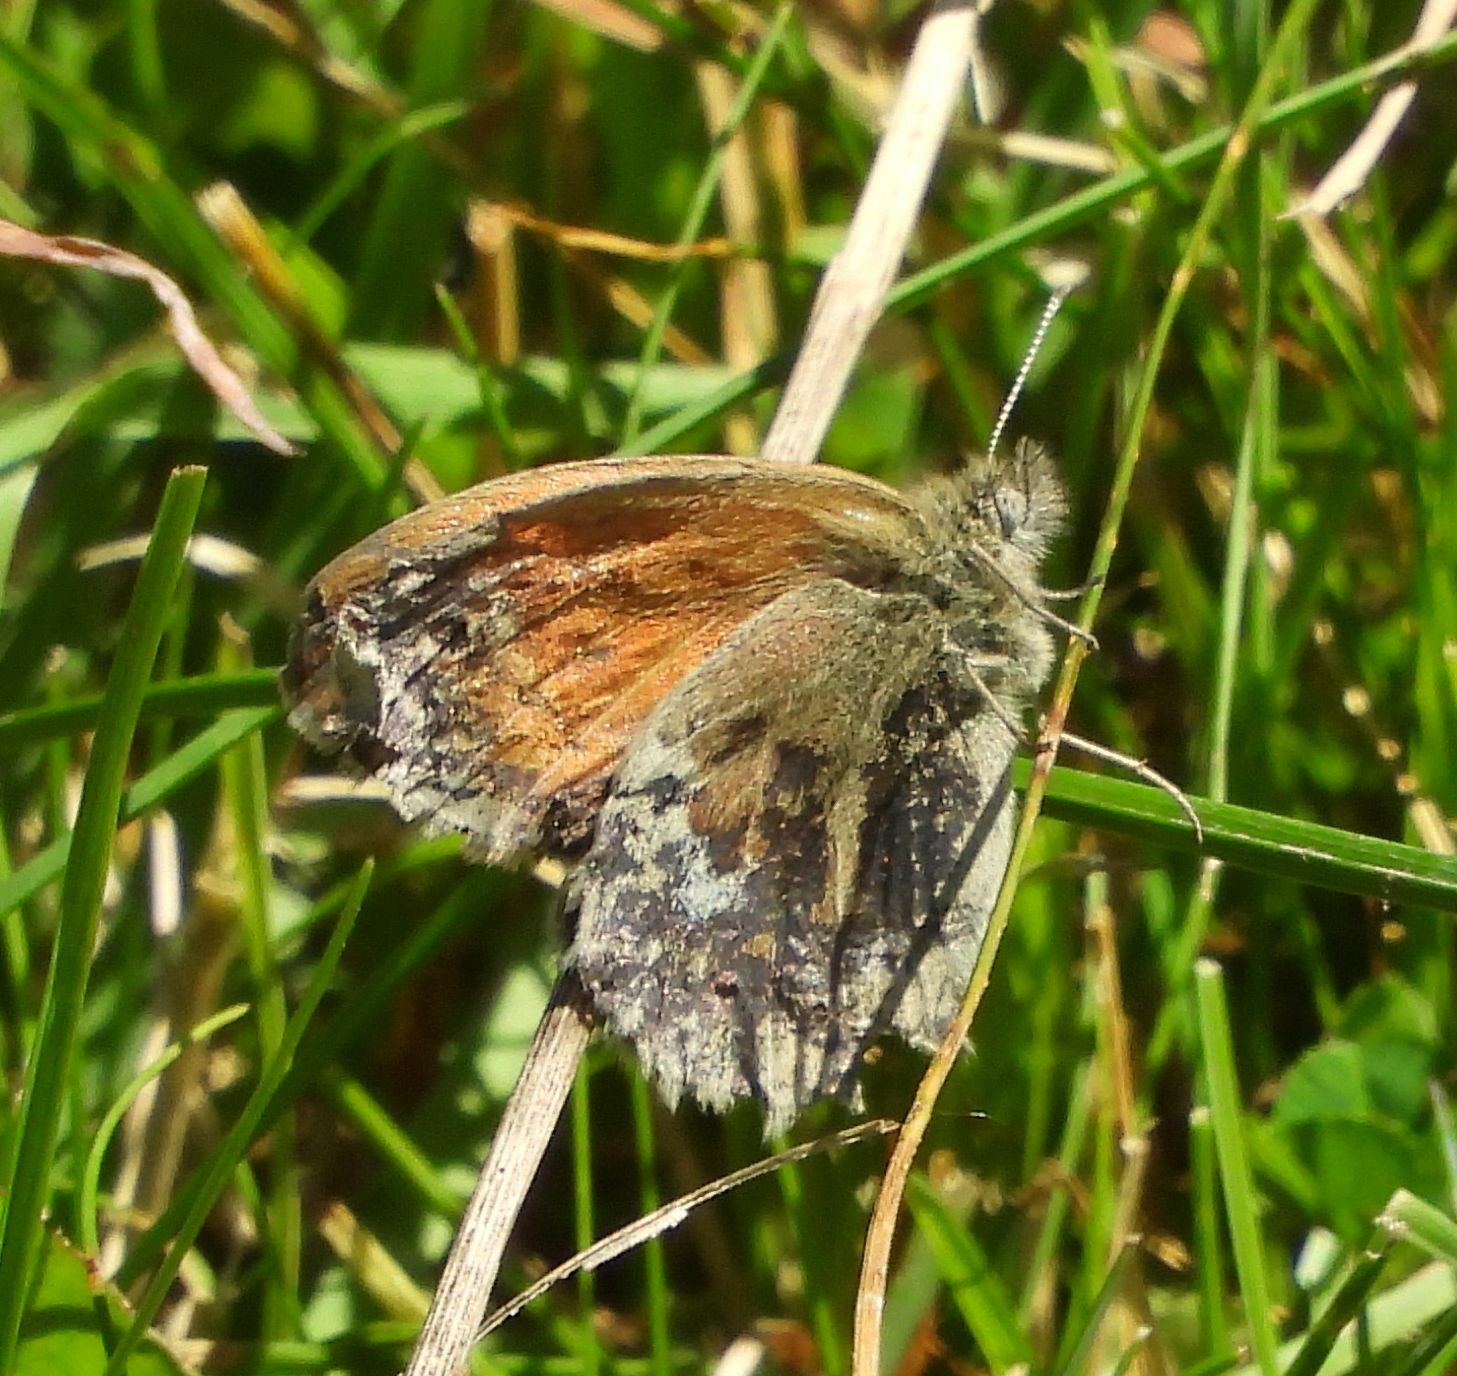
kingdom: Animalia
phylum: Arthropoda
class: Insecta
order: Lepidoptera
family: Nymphalidae
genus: Coenonympha
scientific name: Coenonympha california
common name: Common ringlet
